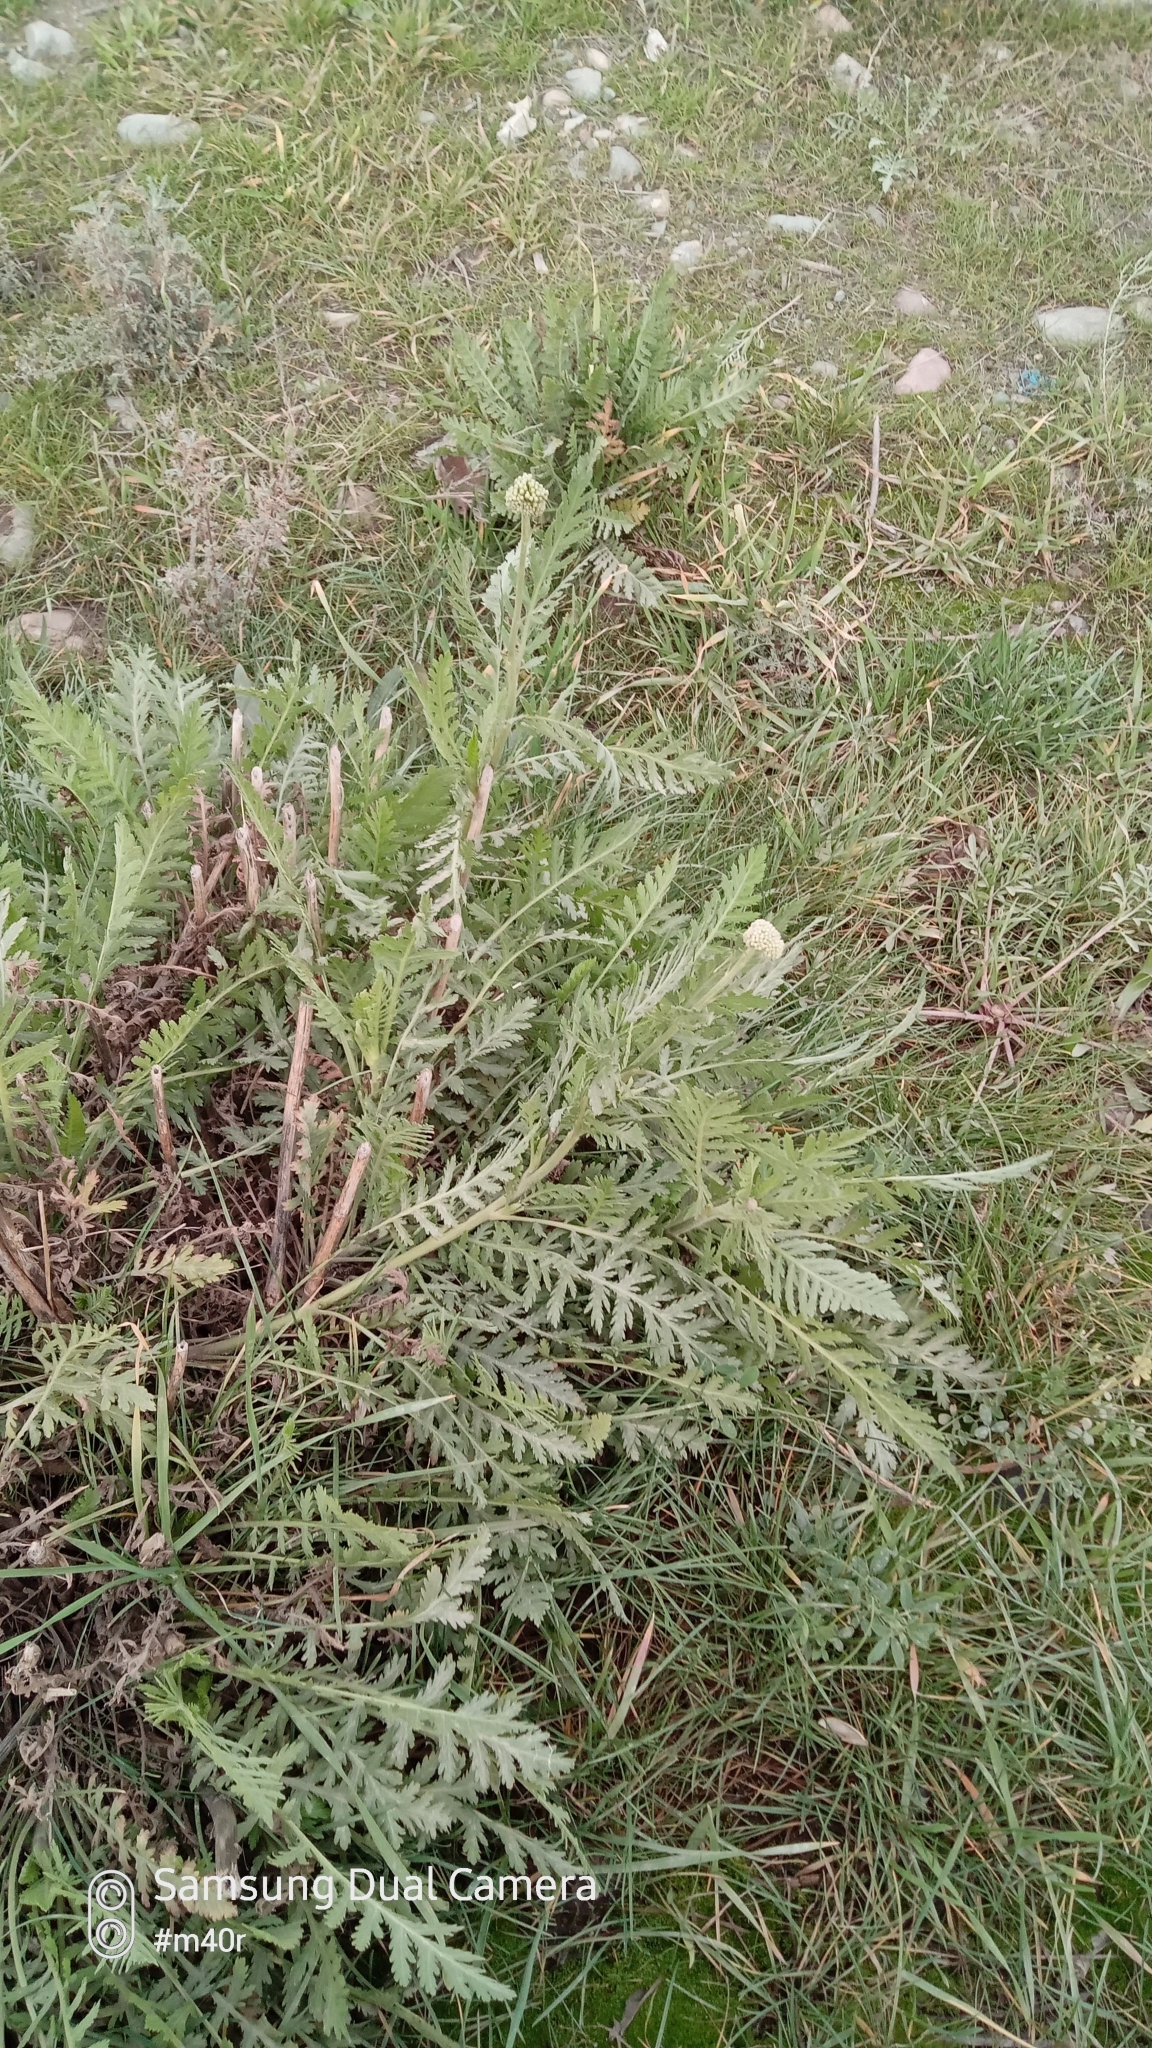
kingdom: Plantae
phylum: Tracheophyta
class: Magnoliopsida
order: Asterales
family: Asteraceae
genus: Achillea
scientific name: Achillea filipendulina
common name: Fernleaf yarrow
